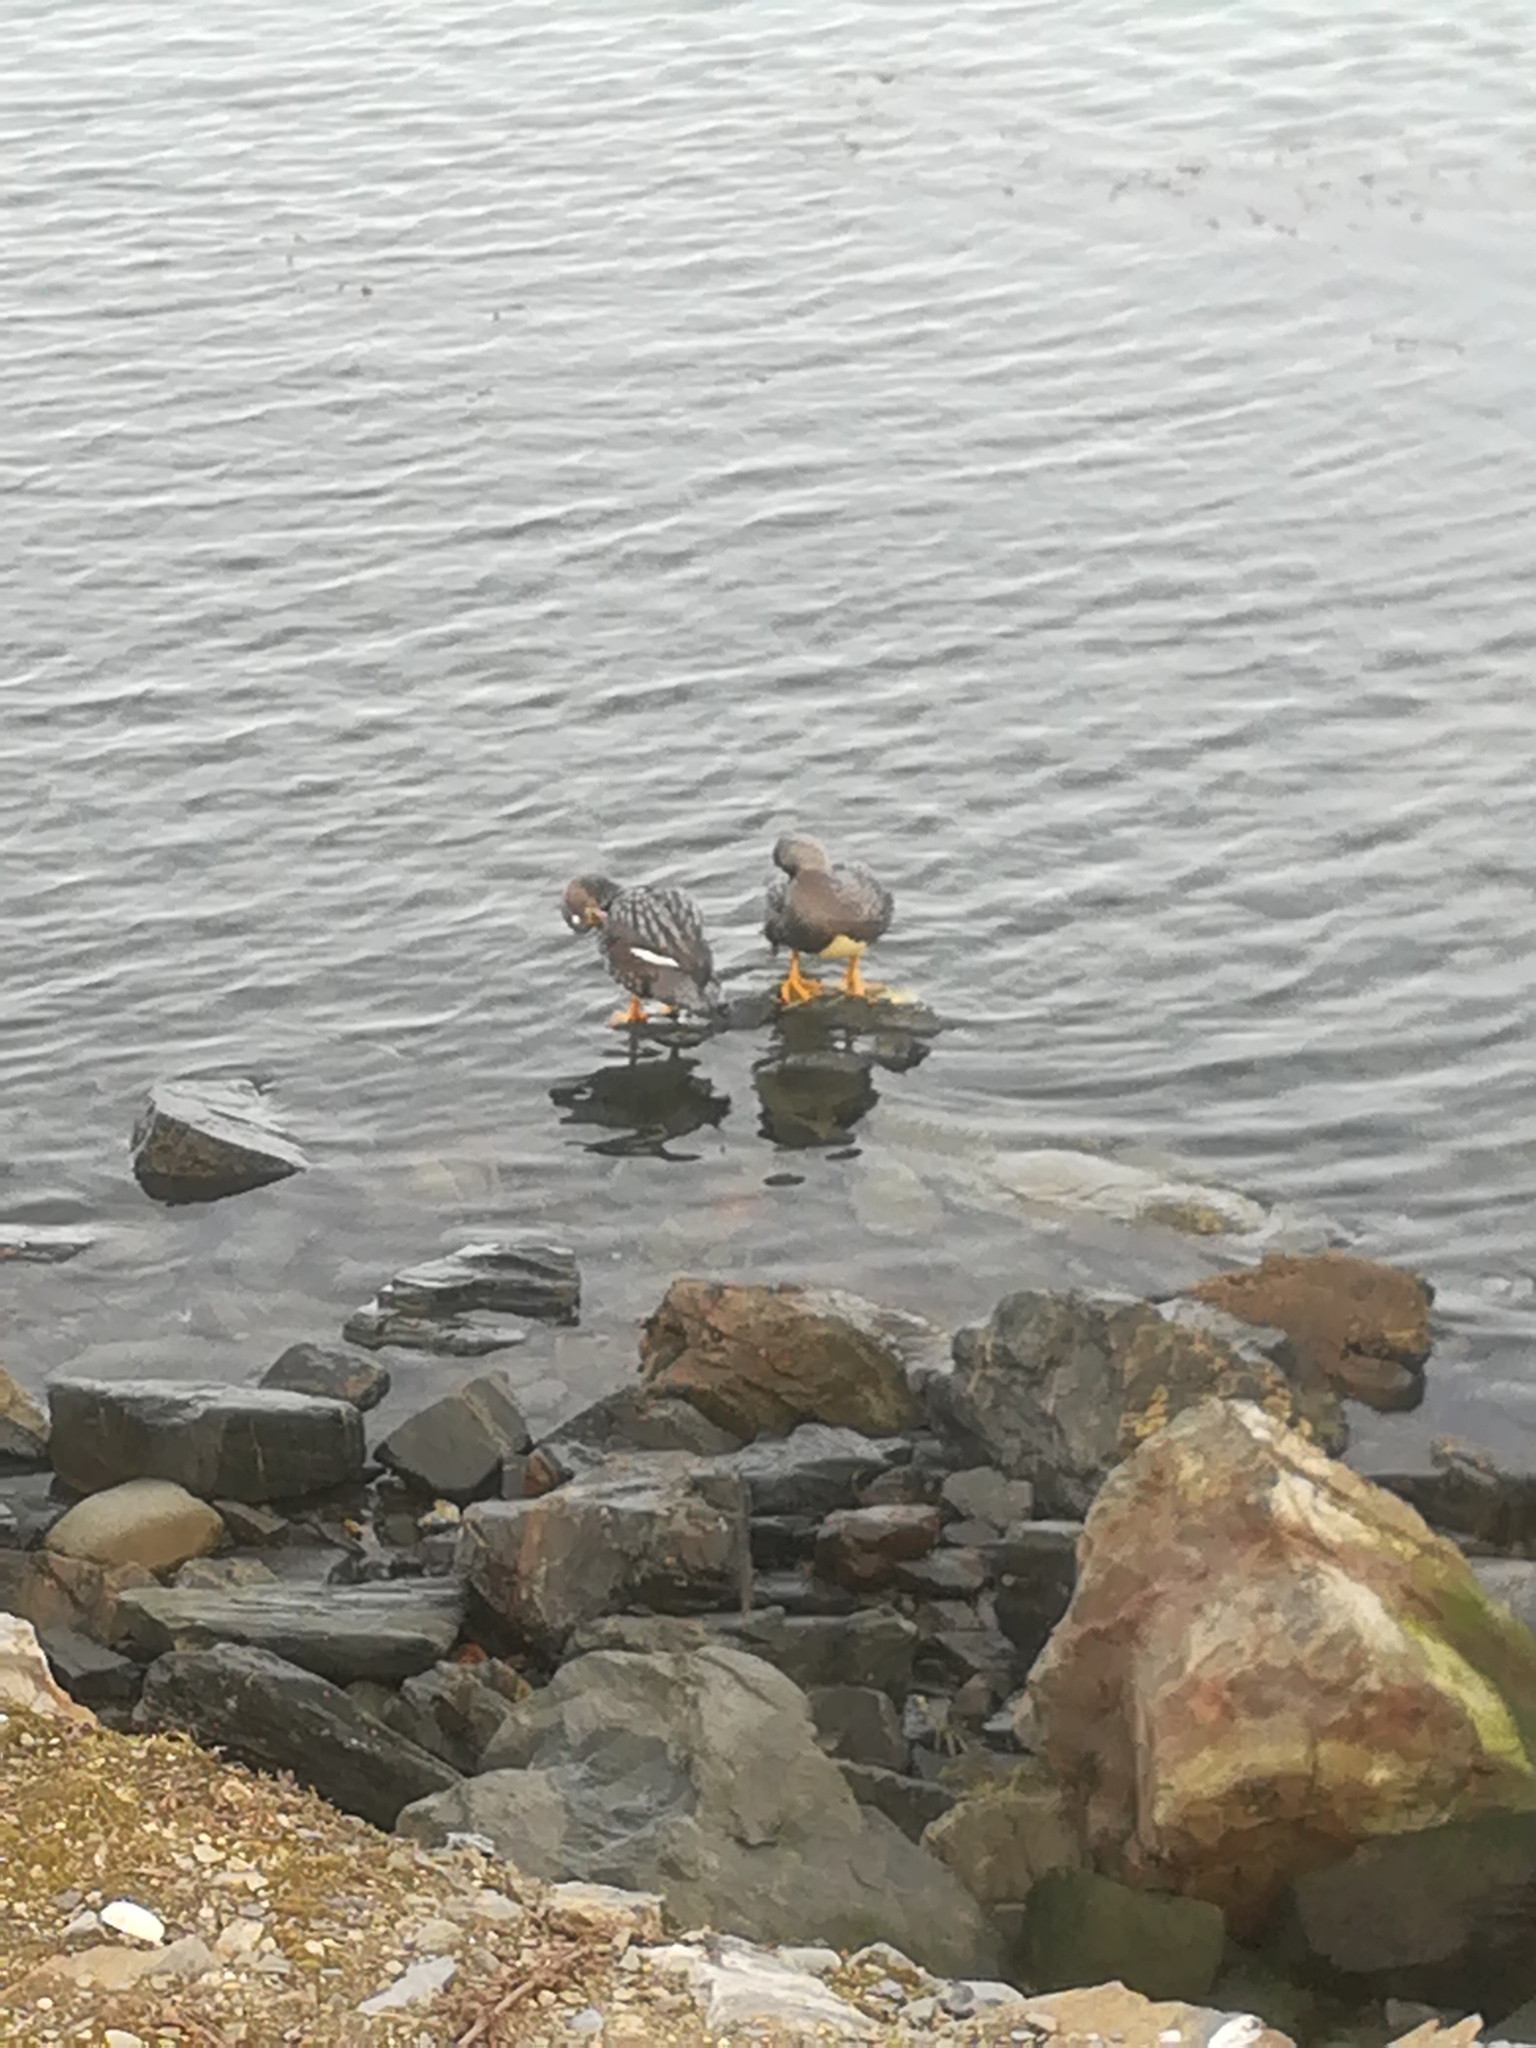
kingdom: Animalia
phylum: Chordata
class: Aves
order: Anseriformes
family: Anatidae
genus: Tachyeres
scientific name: Tachyeres patachonicus
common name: Flying steamer duck
